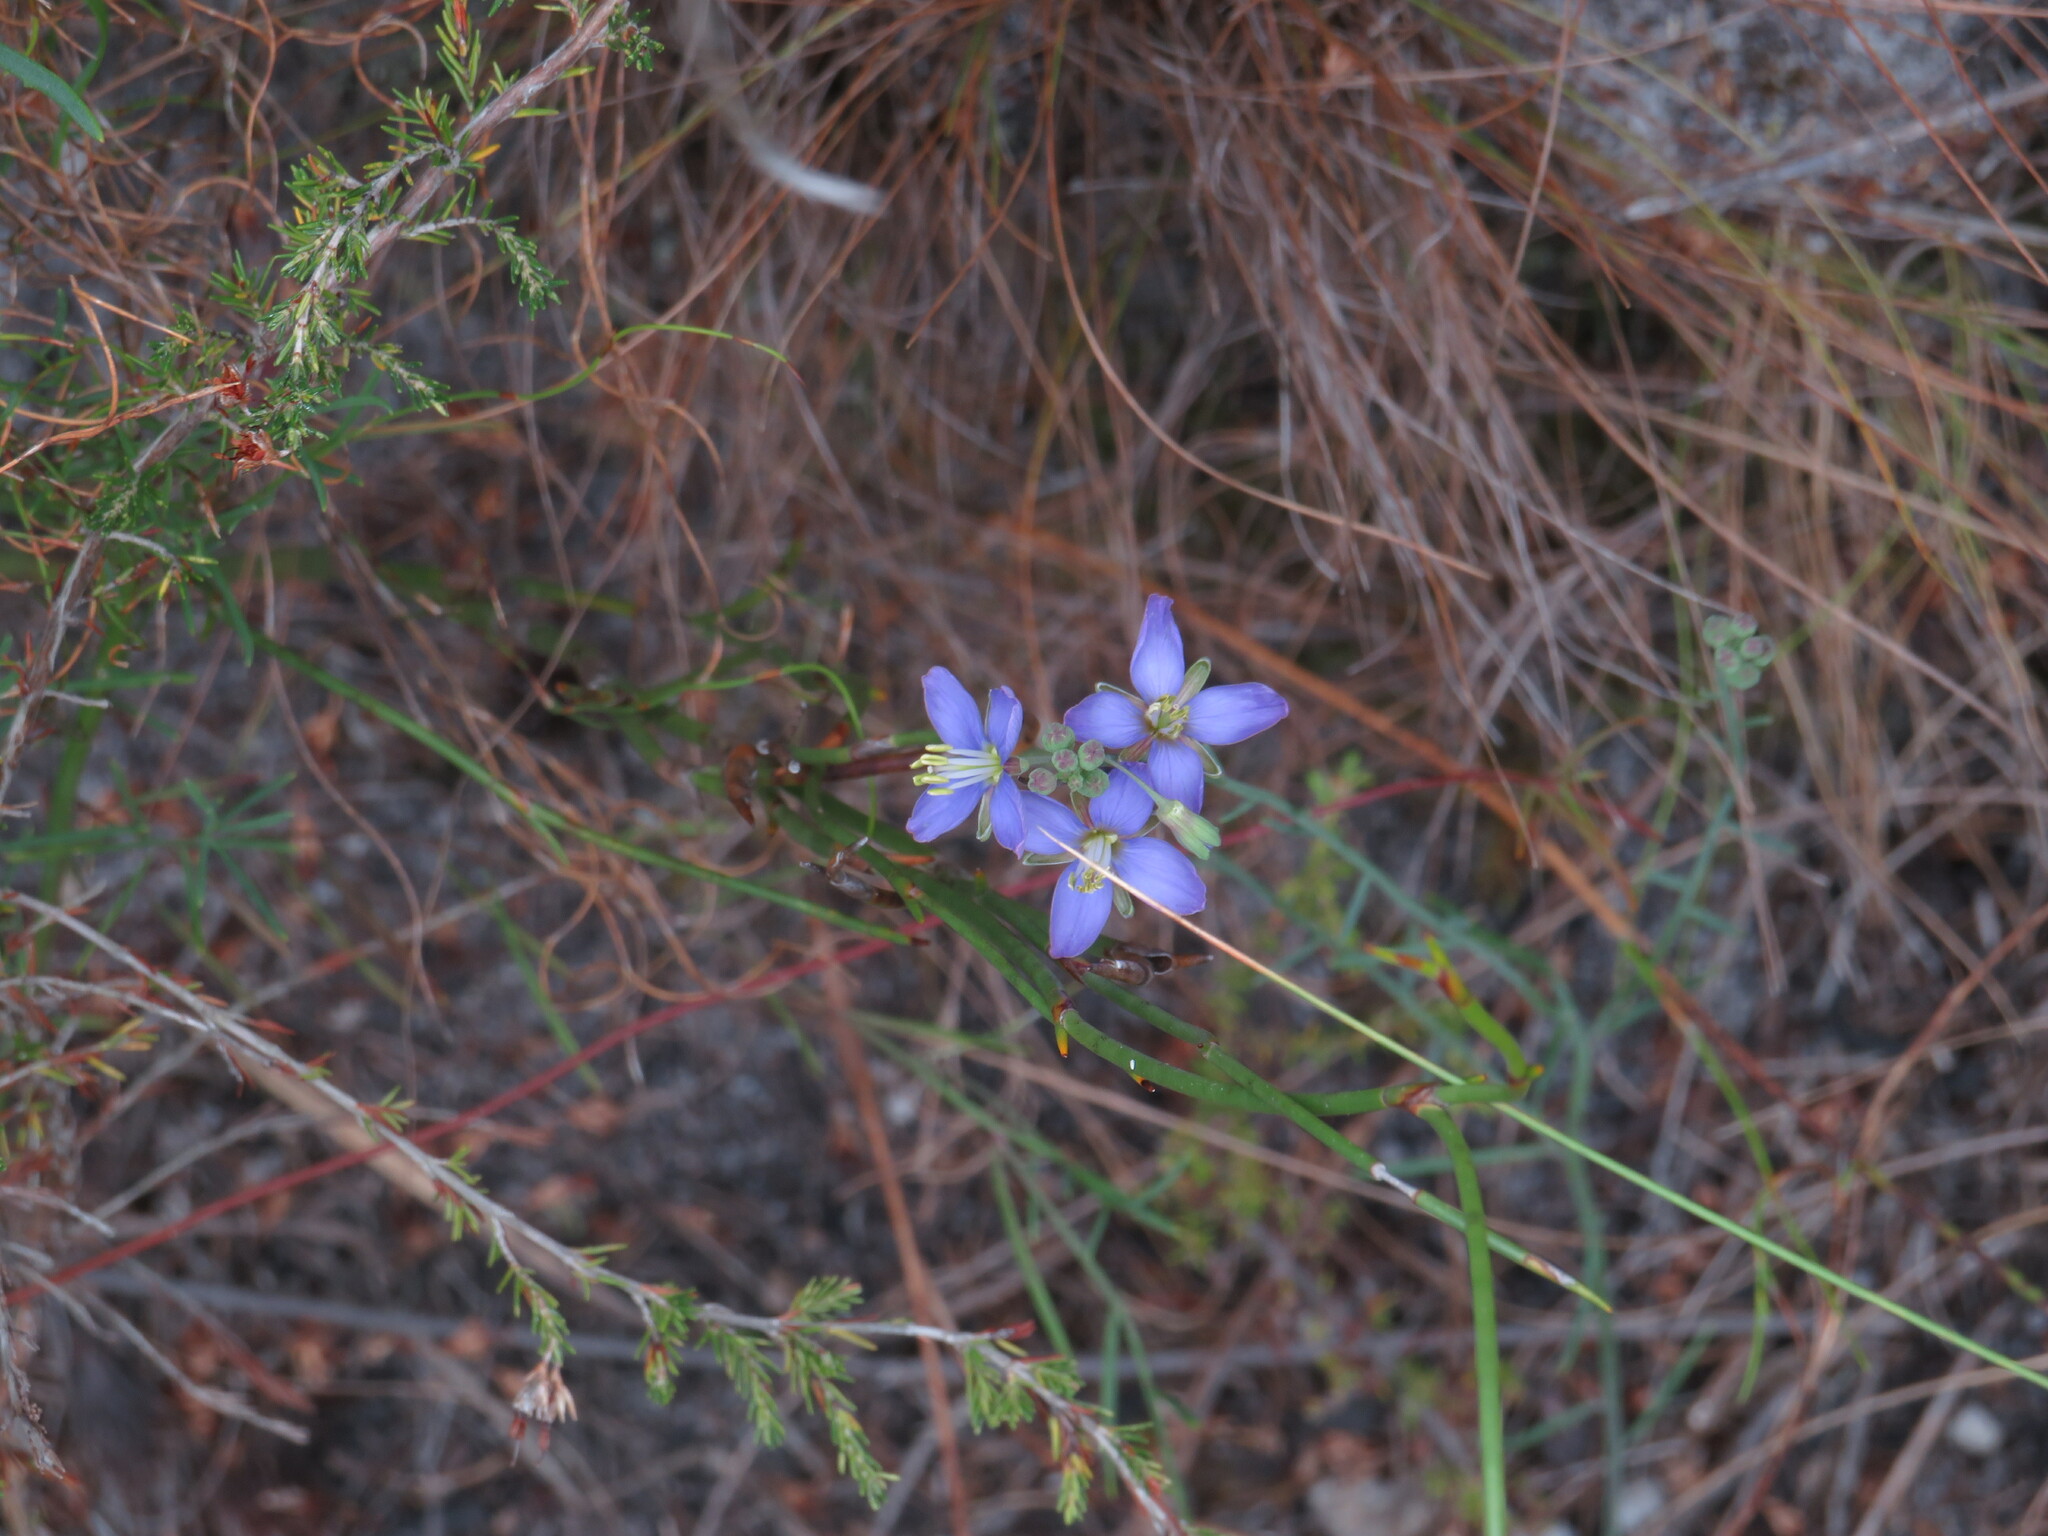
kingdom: Plantae
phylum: Tracheophyta
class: Magnoliopsida
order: Brassicales
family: Brassicaceae
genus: Heliophila
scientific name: Heliophila linearis
